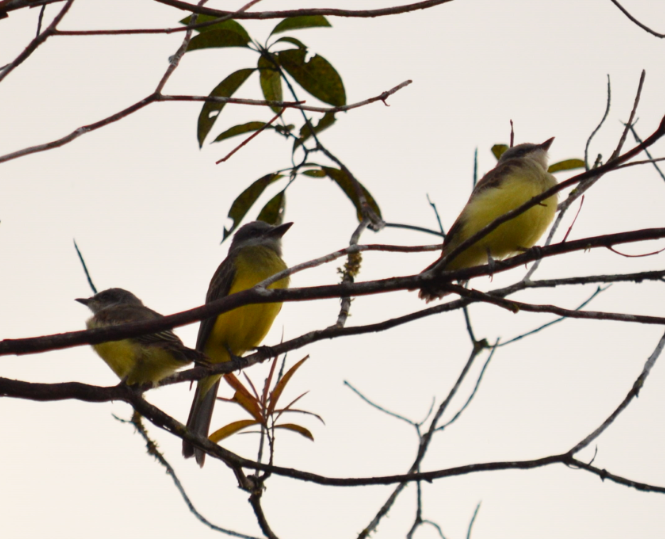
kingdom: Animalia
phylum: Chordata
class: Aves
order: Passeriformes
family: Tyrannidae
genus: Tyrannus
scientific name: Tyrannus melancholicus
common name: Tropical kingbird
